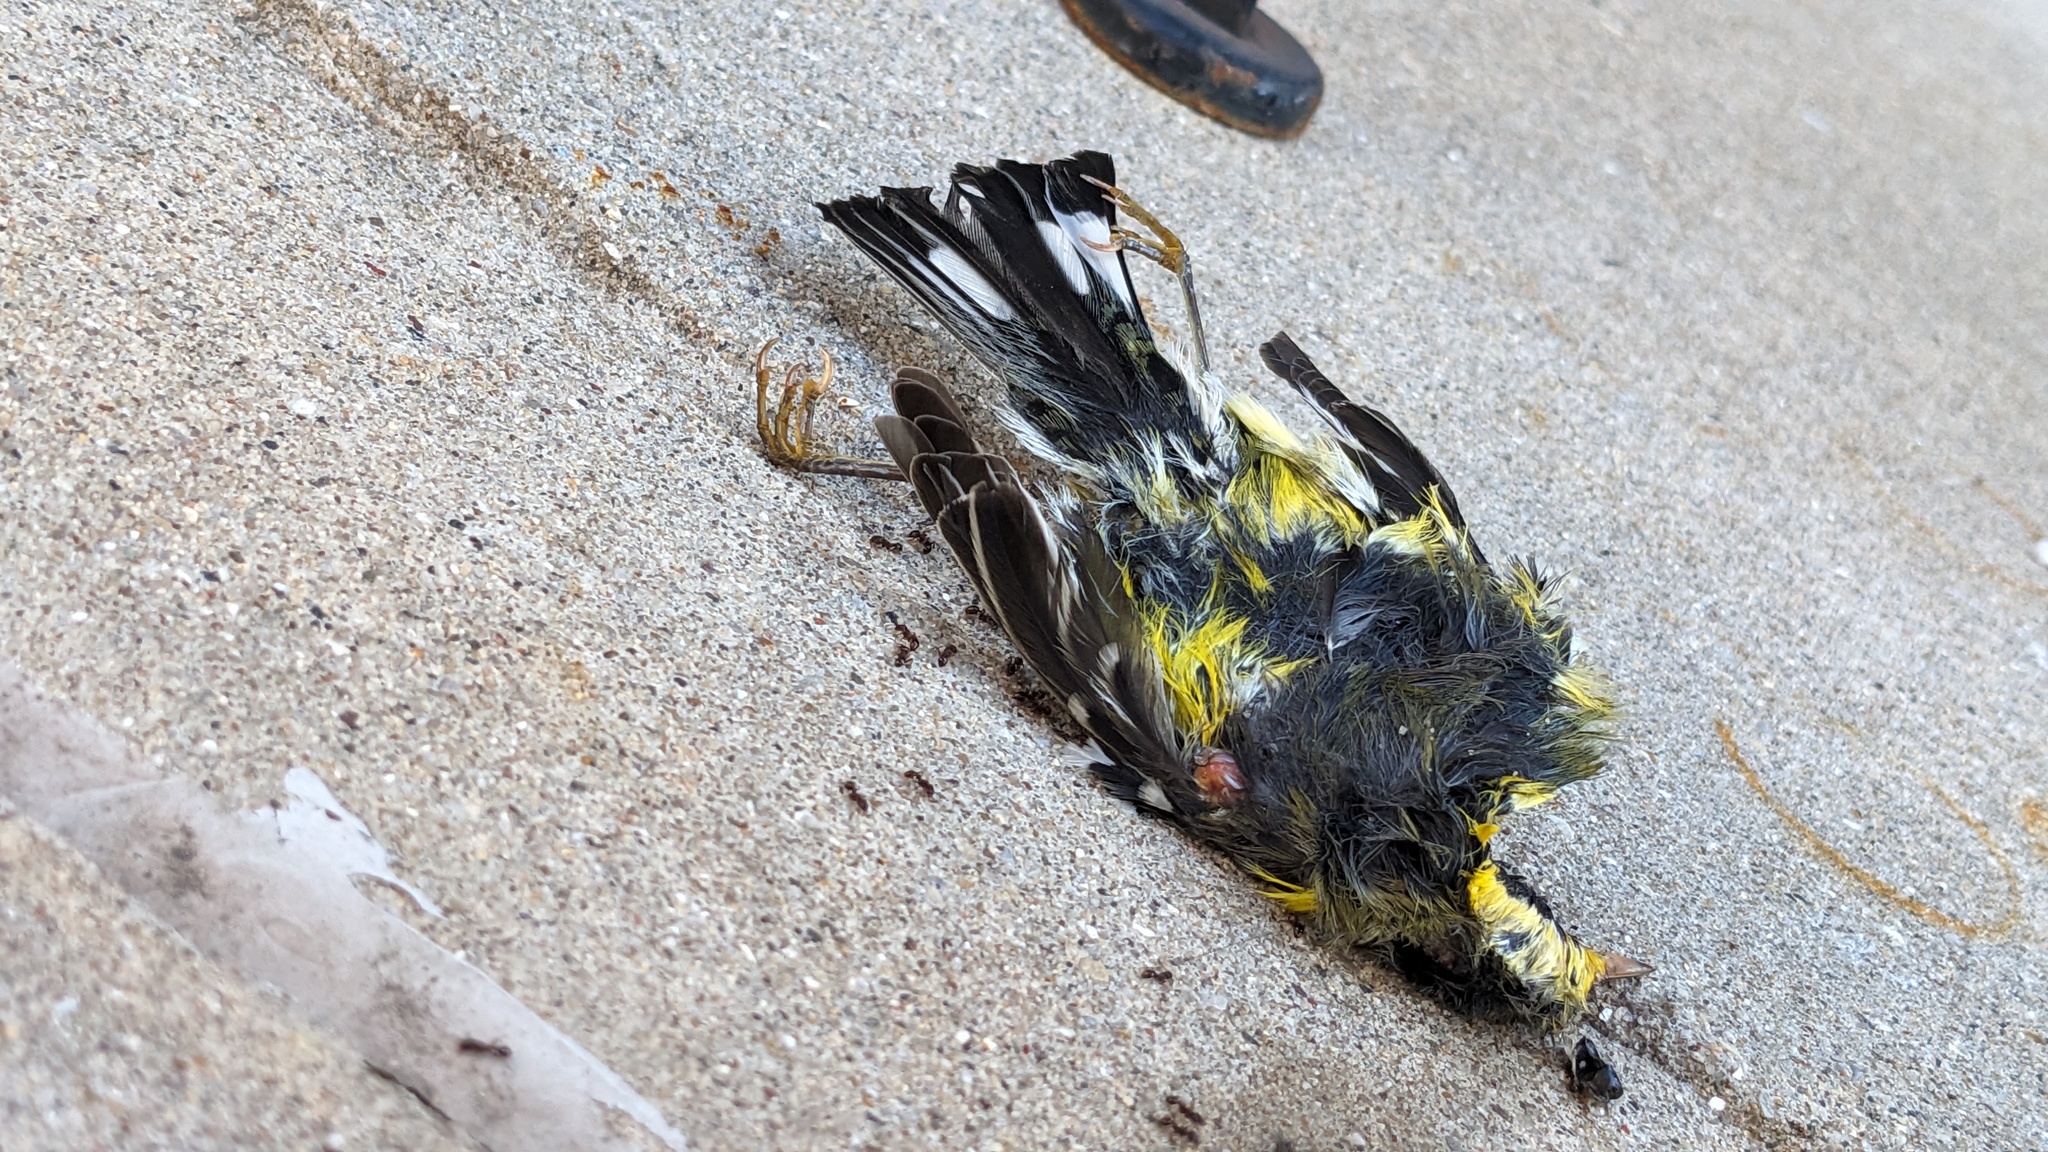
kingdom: Animalia
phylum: Chordata
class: Aves
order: Passeriformes
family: Parulidae
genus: Setophaga
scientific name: Setophaga magnolia
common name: Magnolia warbler
